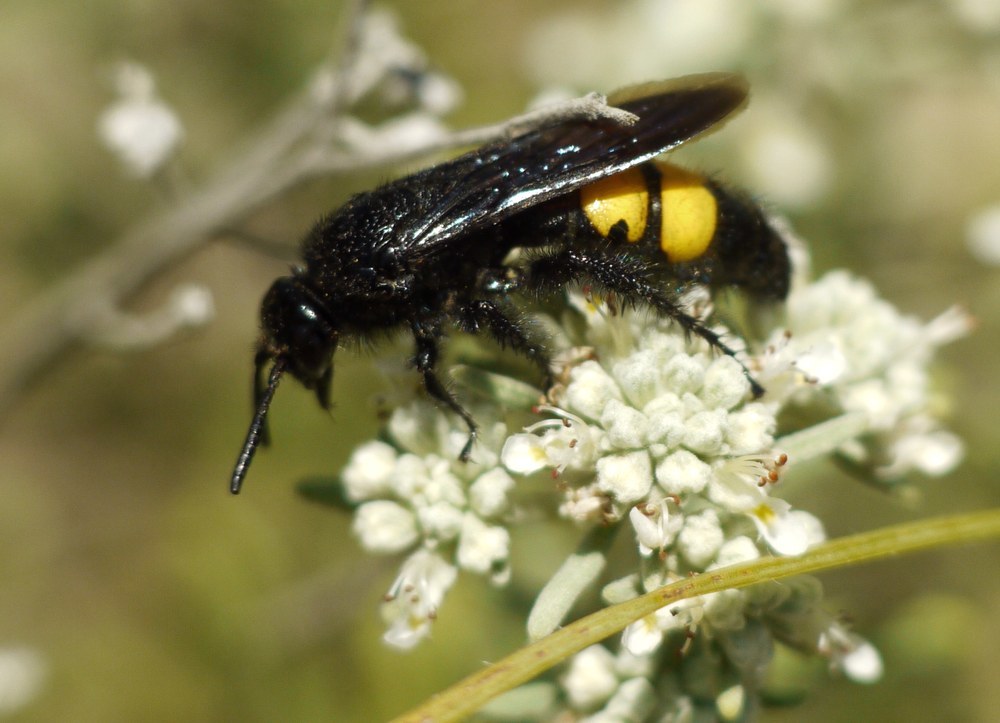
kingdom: Animalia
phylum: Arthropoda
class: Insecta
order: Hymenoptera
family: Scoliidae
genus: Scolia
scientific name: Scolia hirta
